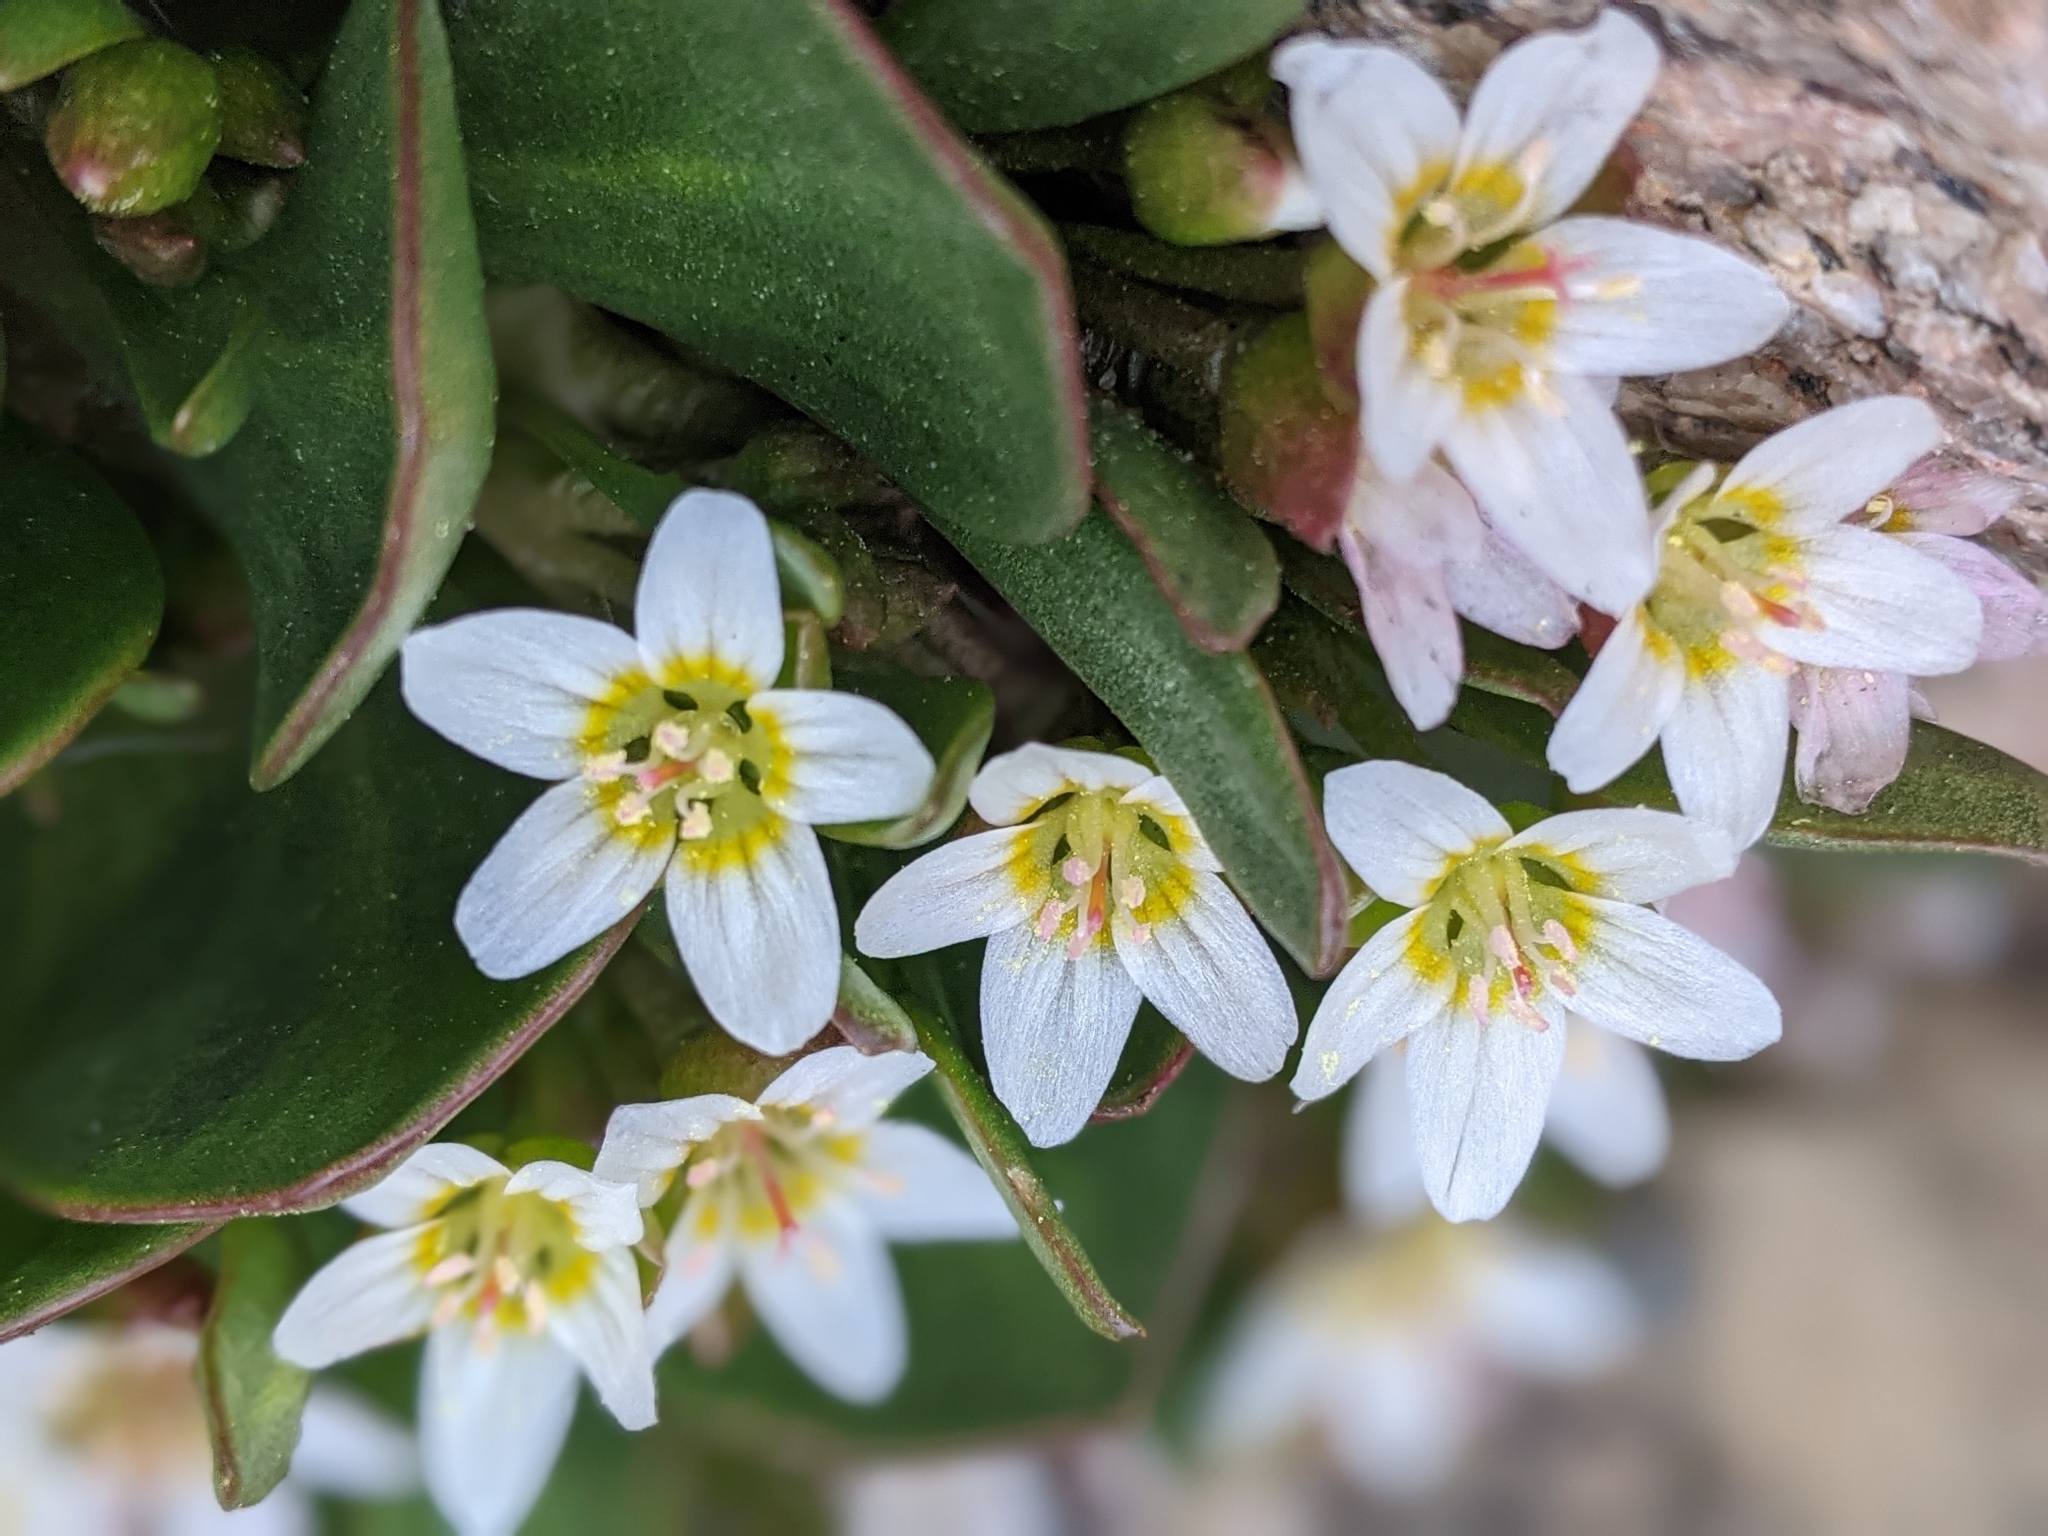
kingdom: Plantae
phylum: Tracheophyta
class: Magnoliopsida
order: Caryophyllales
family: Montiaceae
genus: Claytonia
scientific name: Claytonia megarhiza
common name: Alpine spring beauty
